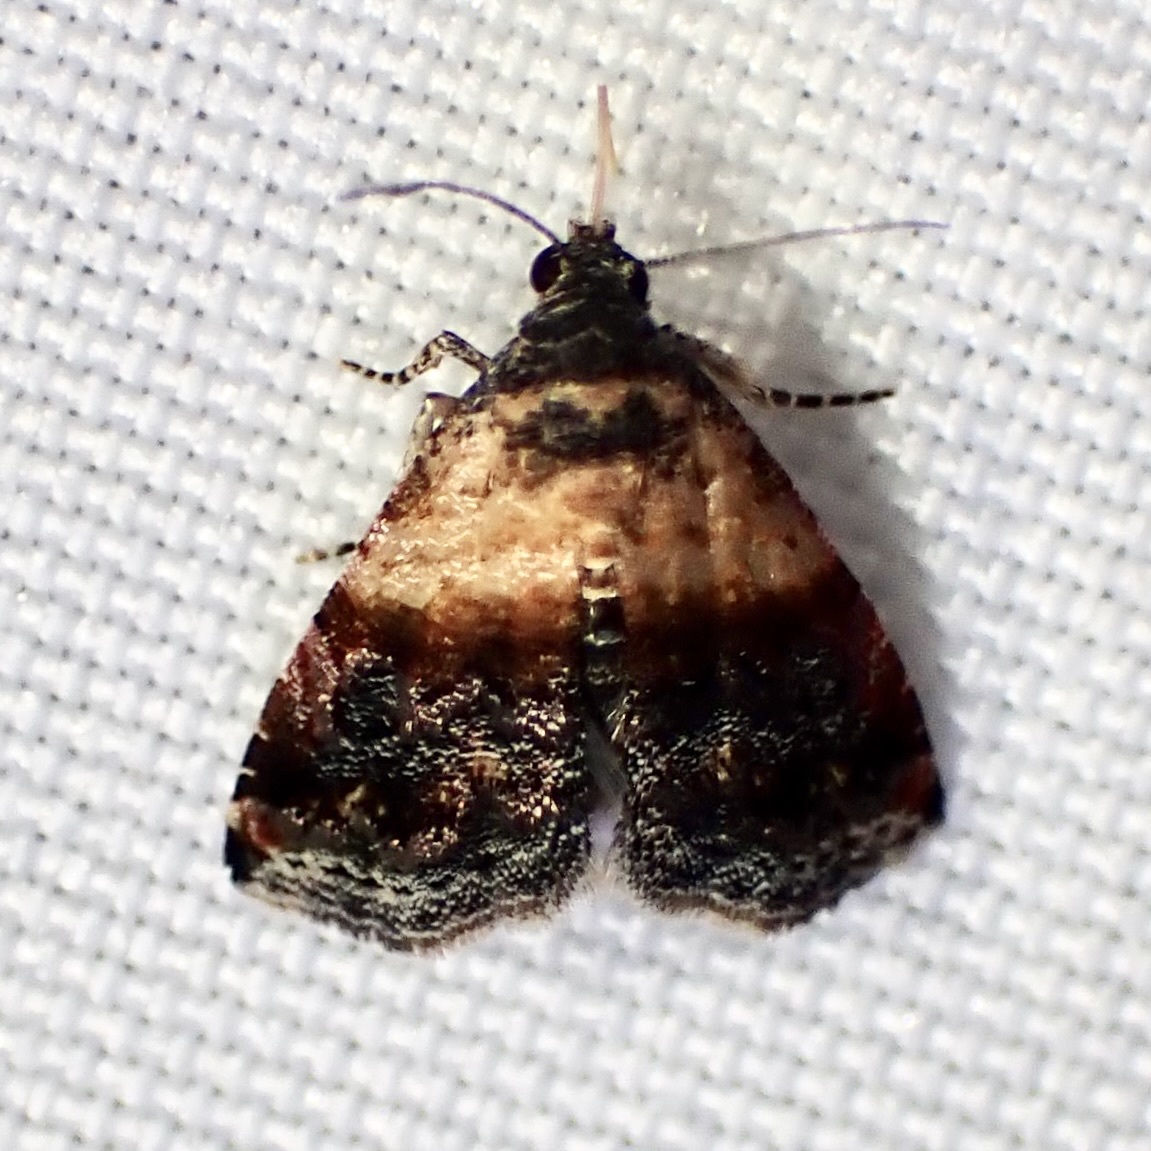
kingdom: Animalia
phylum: Arthropoda
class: Insecta
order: Lepidoptera
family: Noctuidae
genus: Tripudia
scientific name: Tripudia luda
